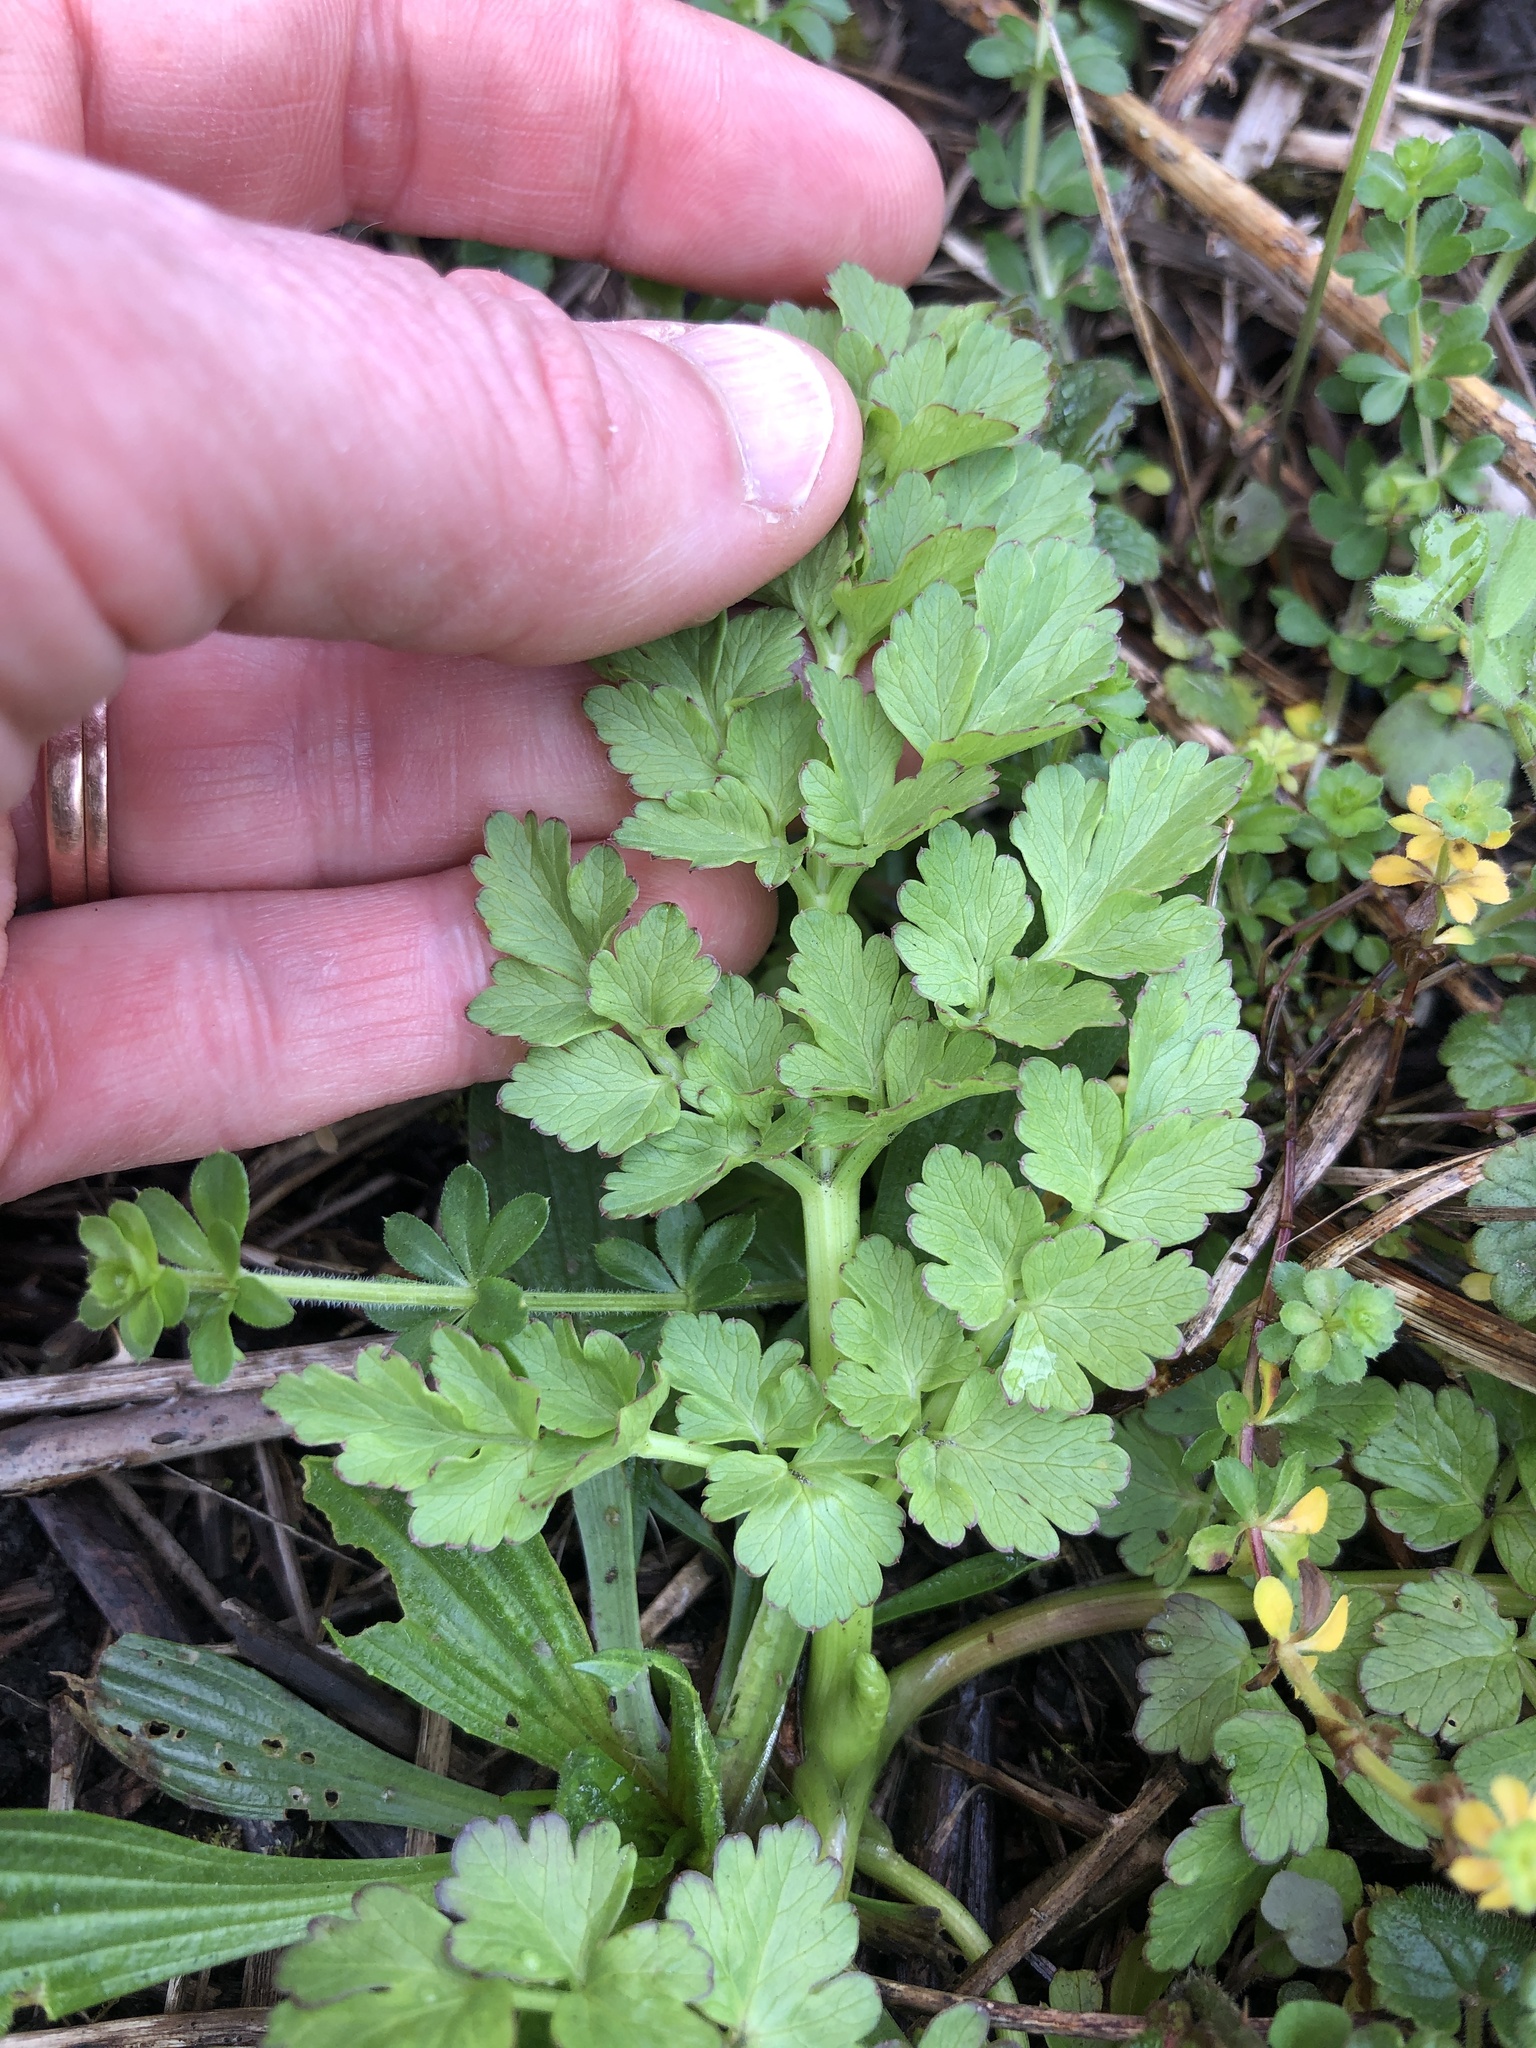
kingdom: Plantae
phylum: Tracheophyta
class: Magnoliopsida
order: Apiales
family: Apiaceae
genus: Oenanthe
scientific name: Oenanthe crocata
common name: Hemlock water-dropwort
